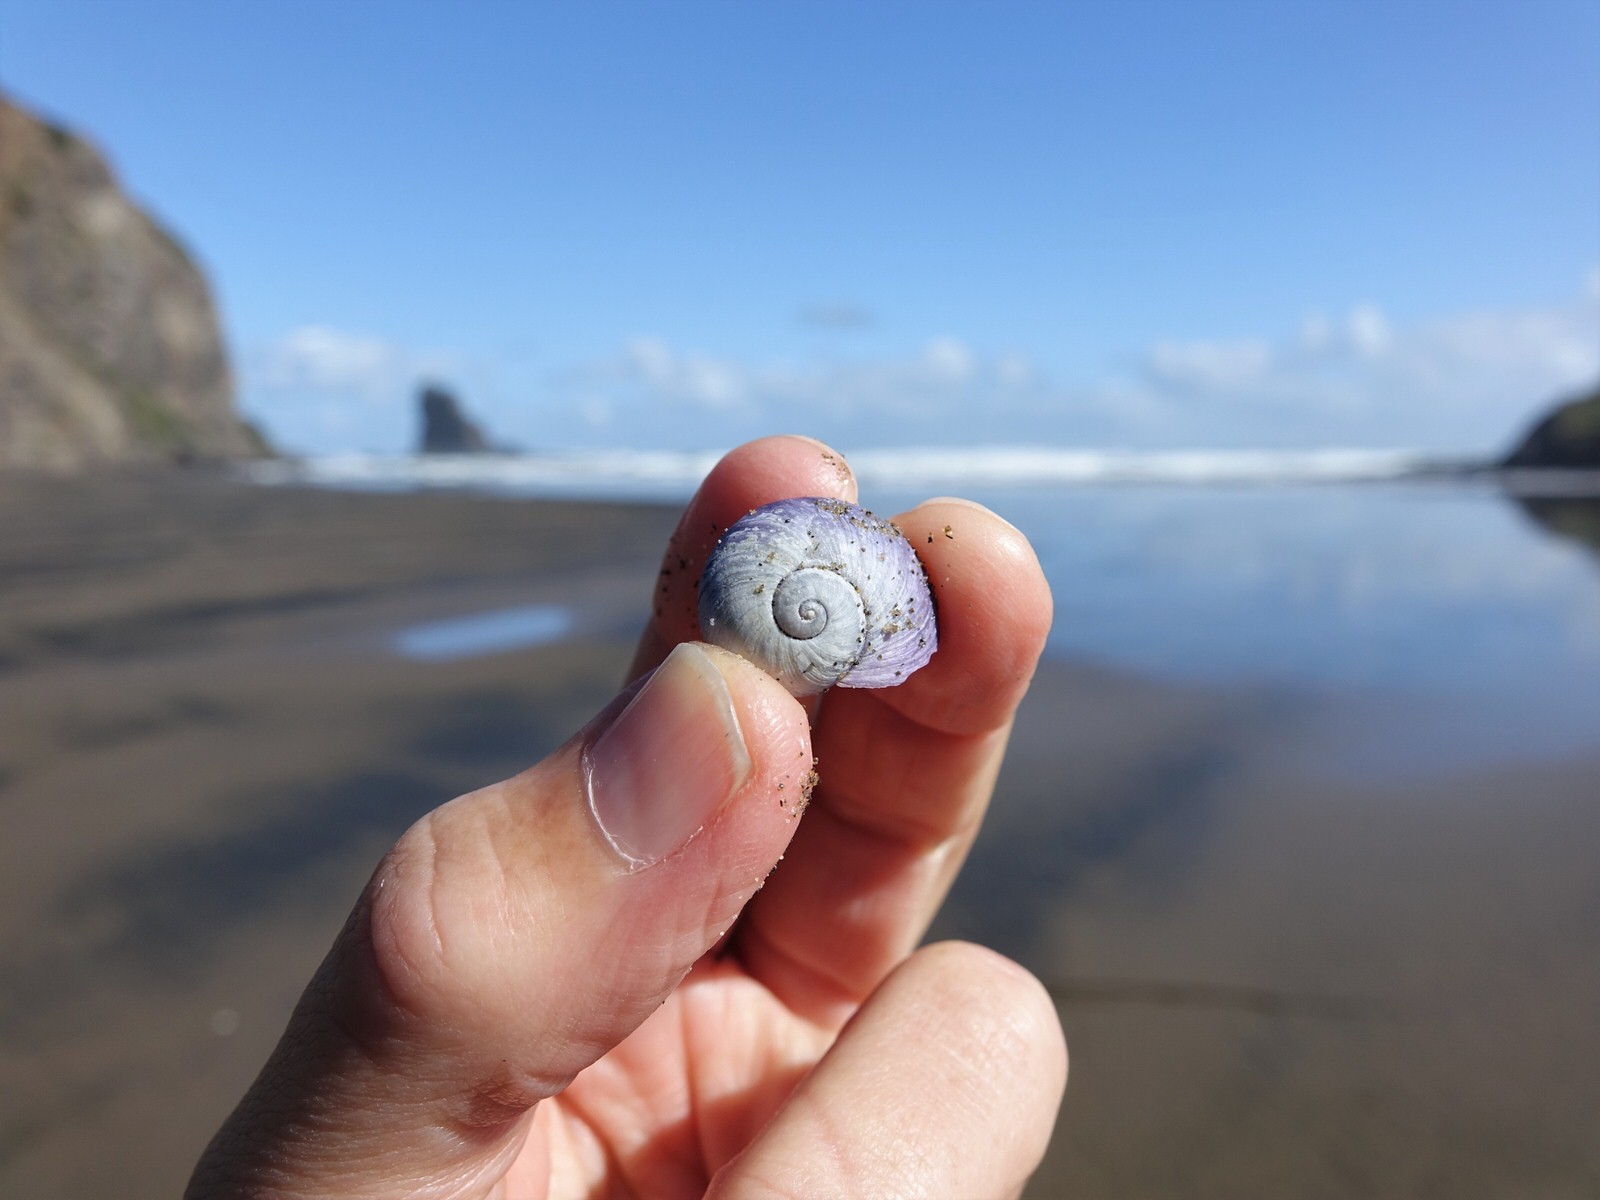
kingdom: Animalia
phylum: Mollusca
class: Gastropoda
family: Epitoniidae
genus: Janthina
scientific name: Janthina janthina
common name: Common janthina
